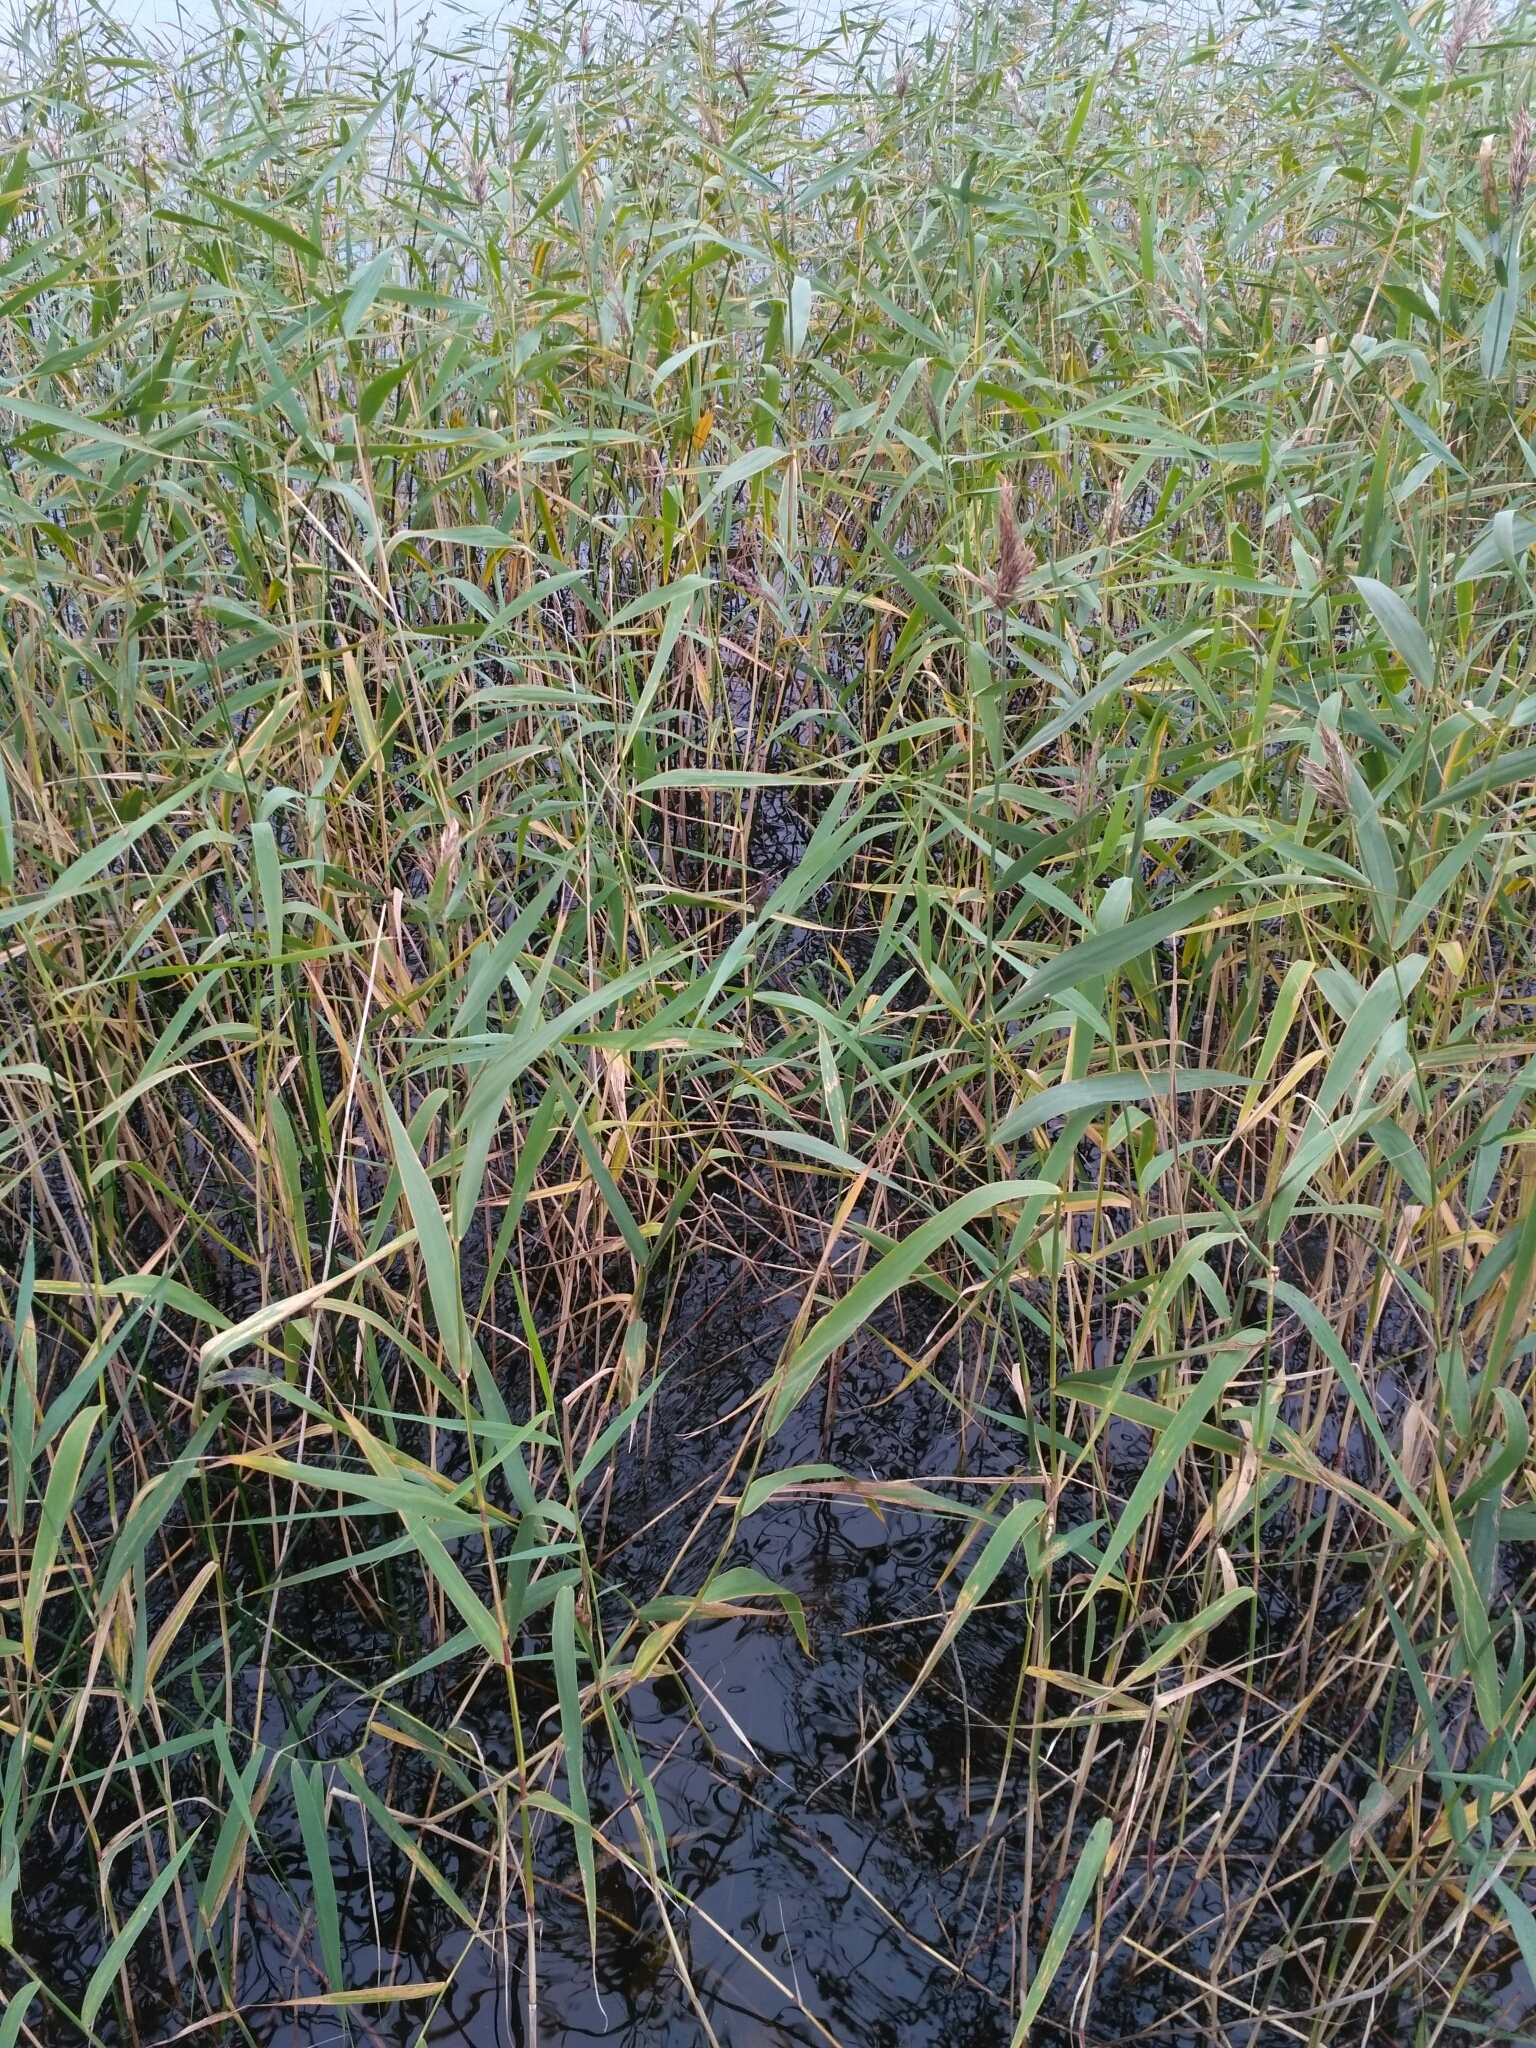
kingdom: Plantae
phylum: Tracheophyta
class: Liliopsida
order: Poales
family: Poaceae
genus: Phragmites
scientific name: Phragmites australis
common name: Common reed
